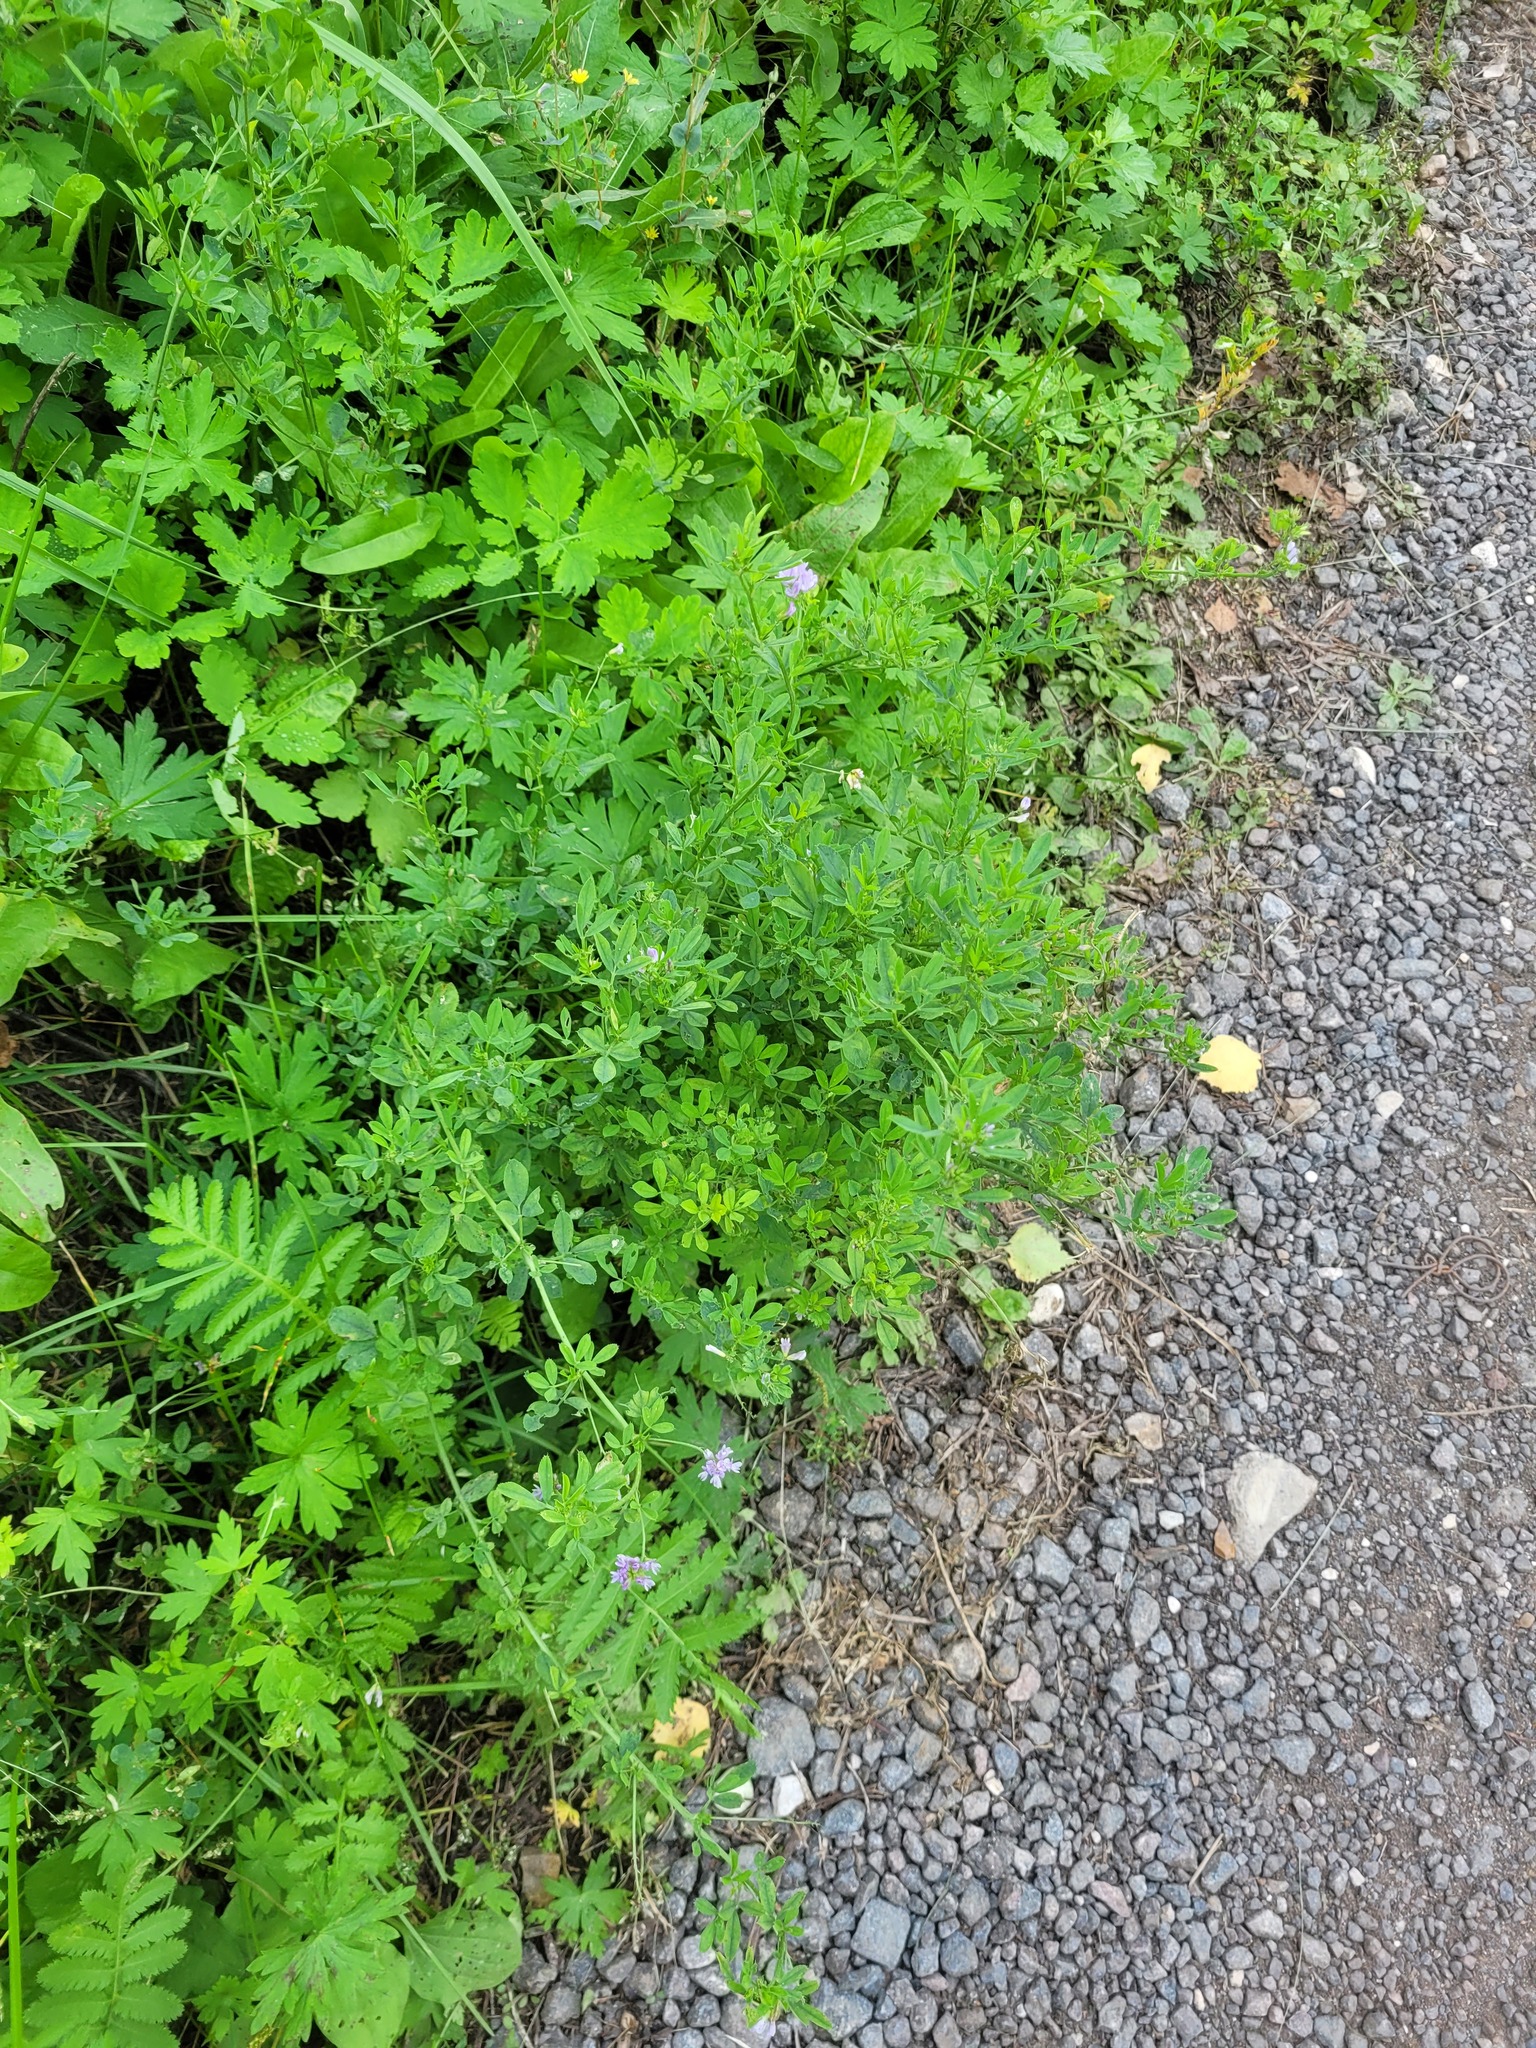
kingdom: Plantae
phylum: Tracheophyta
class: Magnoliopsida
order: Fabales
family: Fabaceae
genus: Medicago
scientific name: Medicago varia
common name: Sand lucerne
